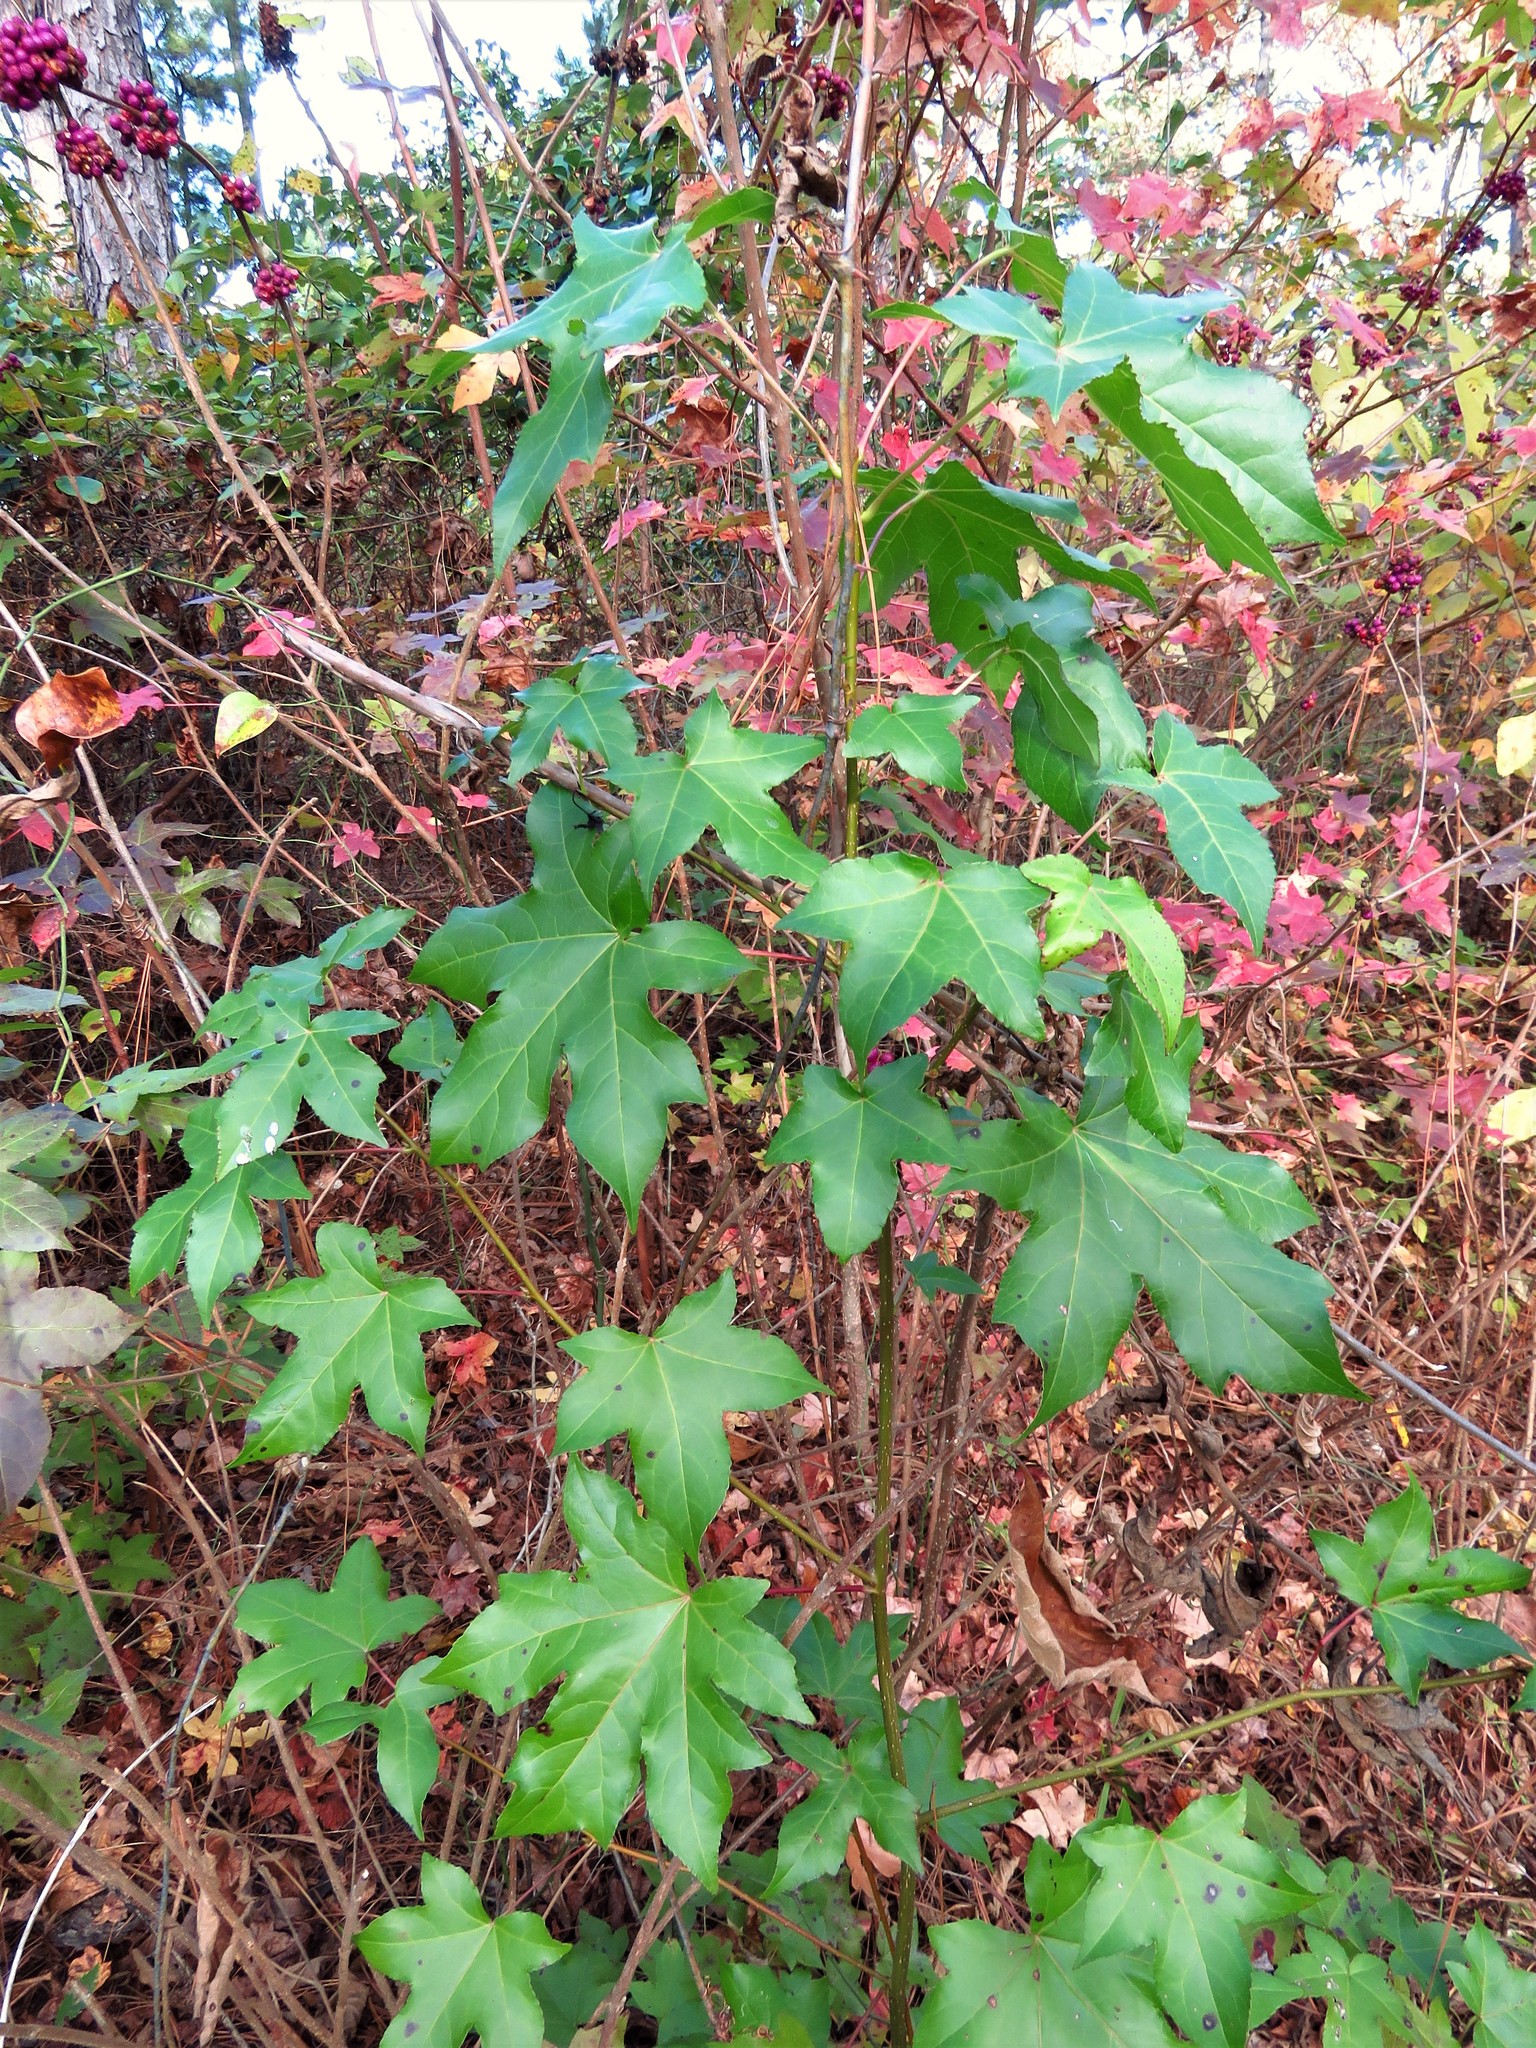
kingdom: Plantae
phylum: Tracheophyta
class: Magnoliopsida
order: Saxifragales
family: Altingiaceae
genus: Liquidambar
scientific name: Liquidambar styraciflua
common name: Sweet gum
